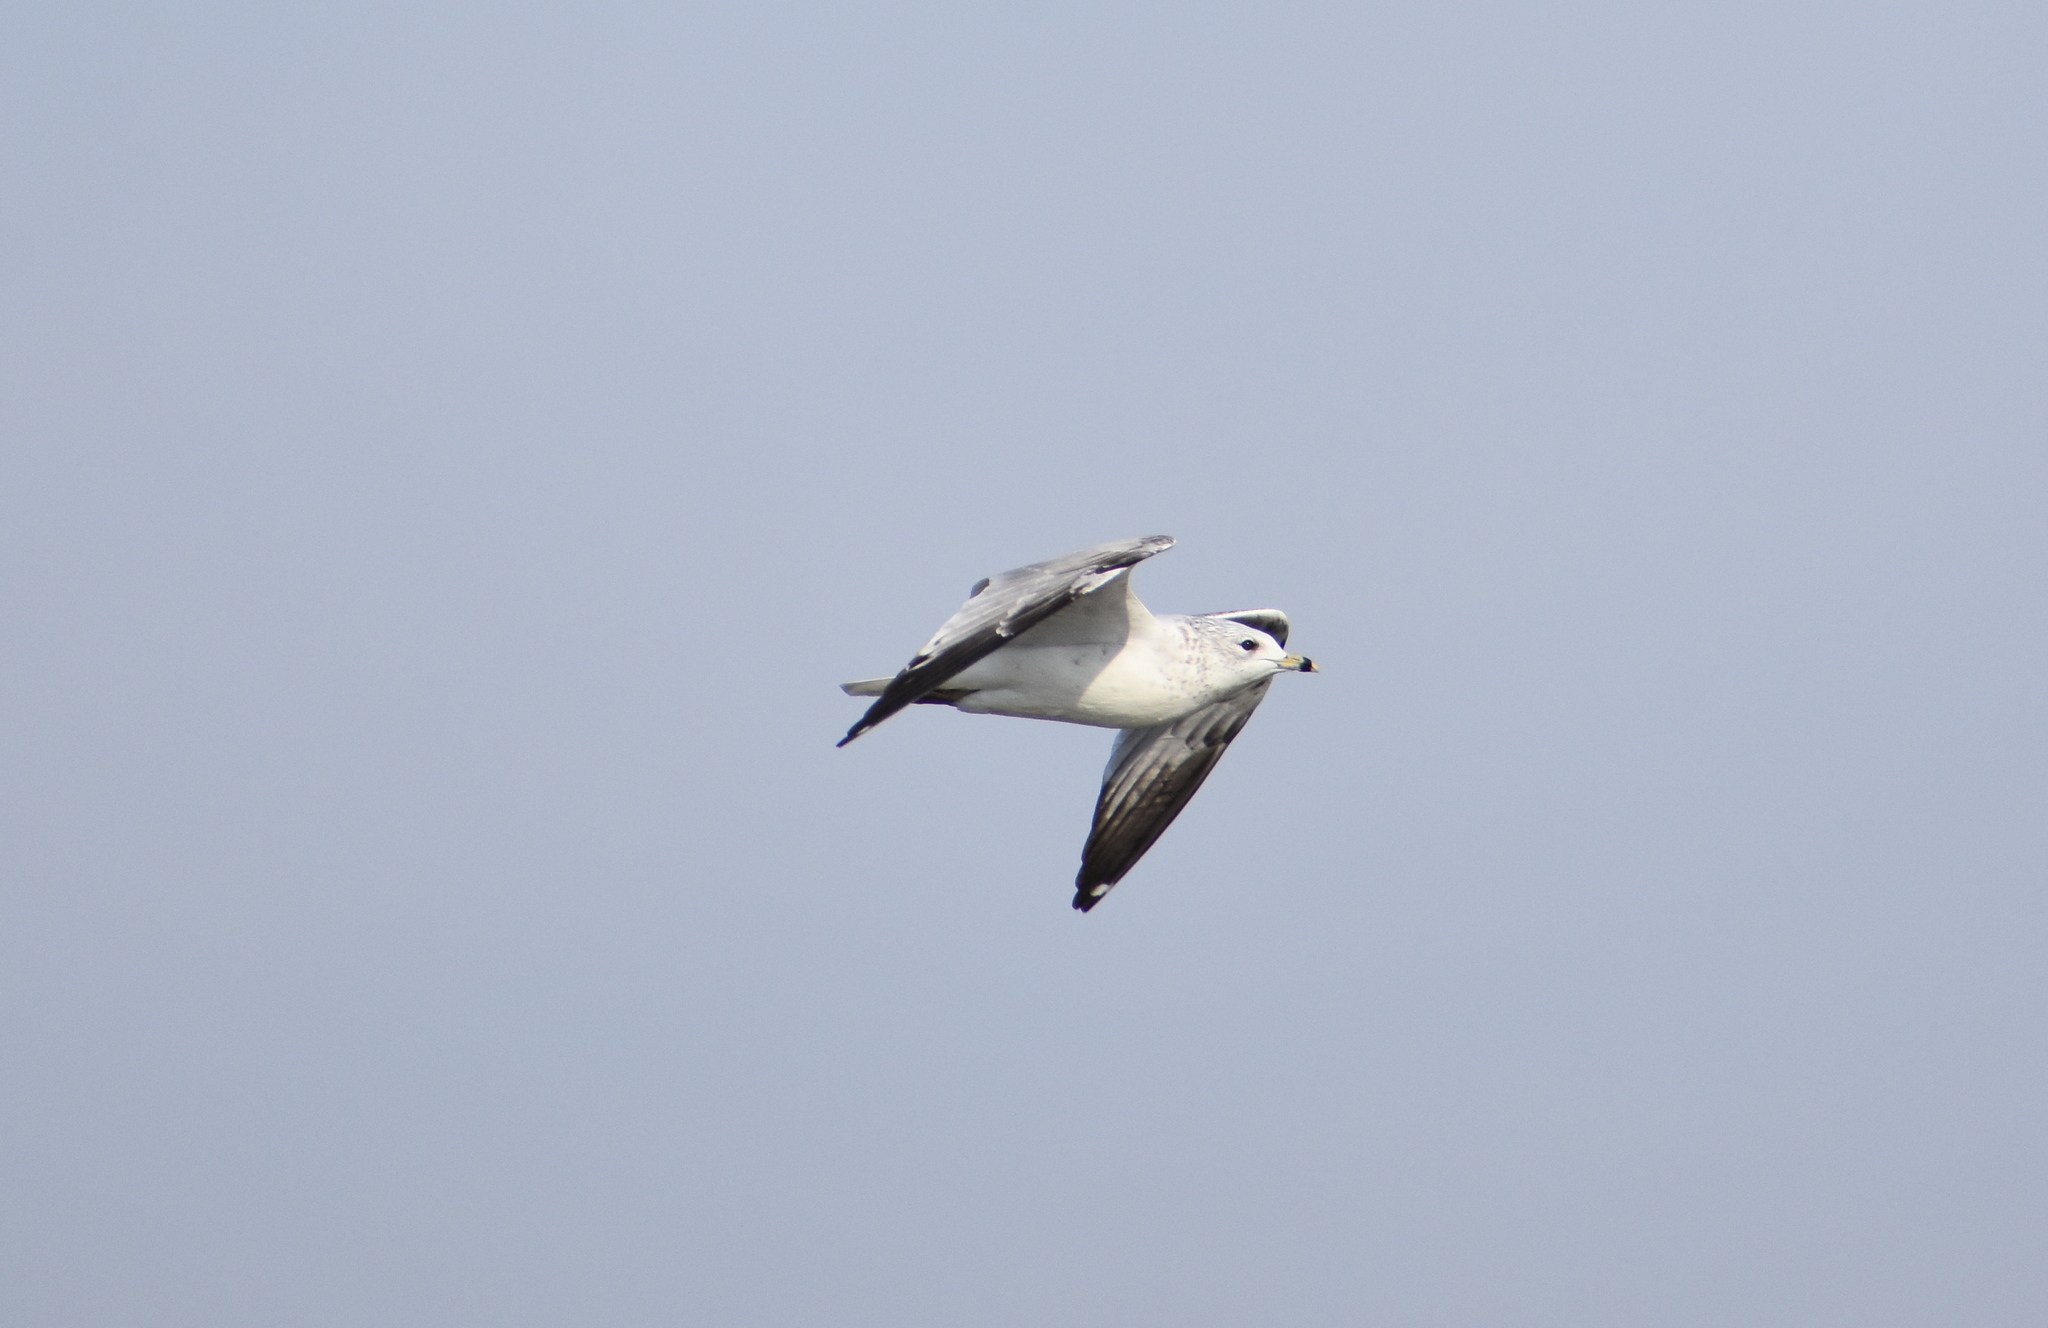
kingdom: Animalia
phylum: Chordata
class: Aves
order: Charadriiformes
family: Laridae
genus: Larus
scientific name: Larus delawarensis
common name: Ring-billed gull
